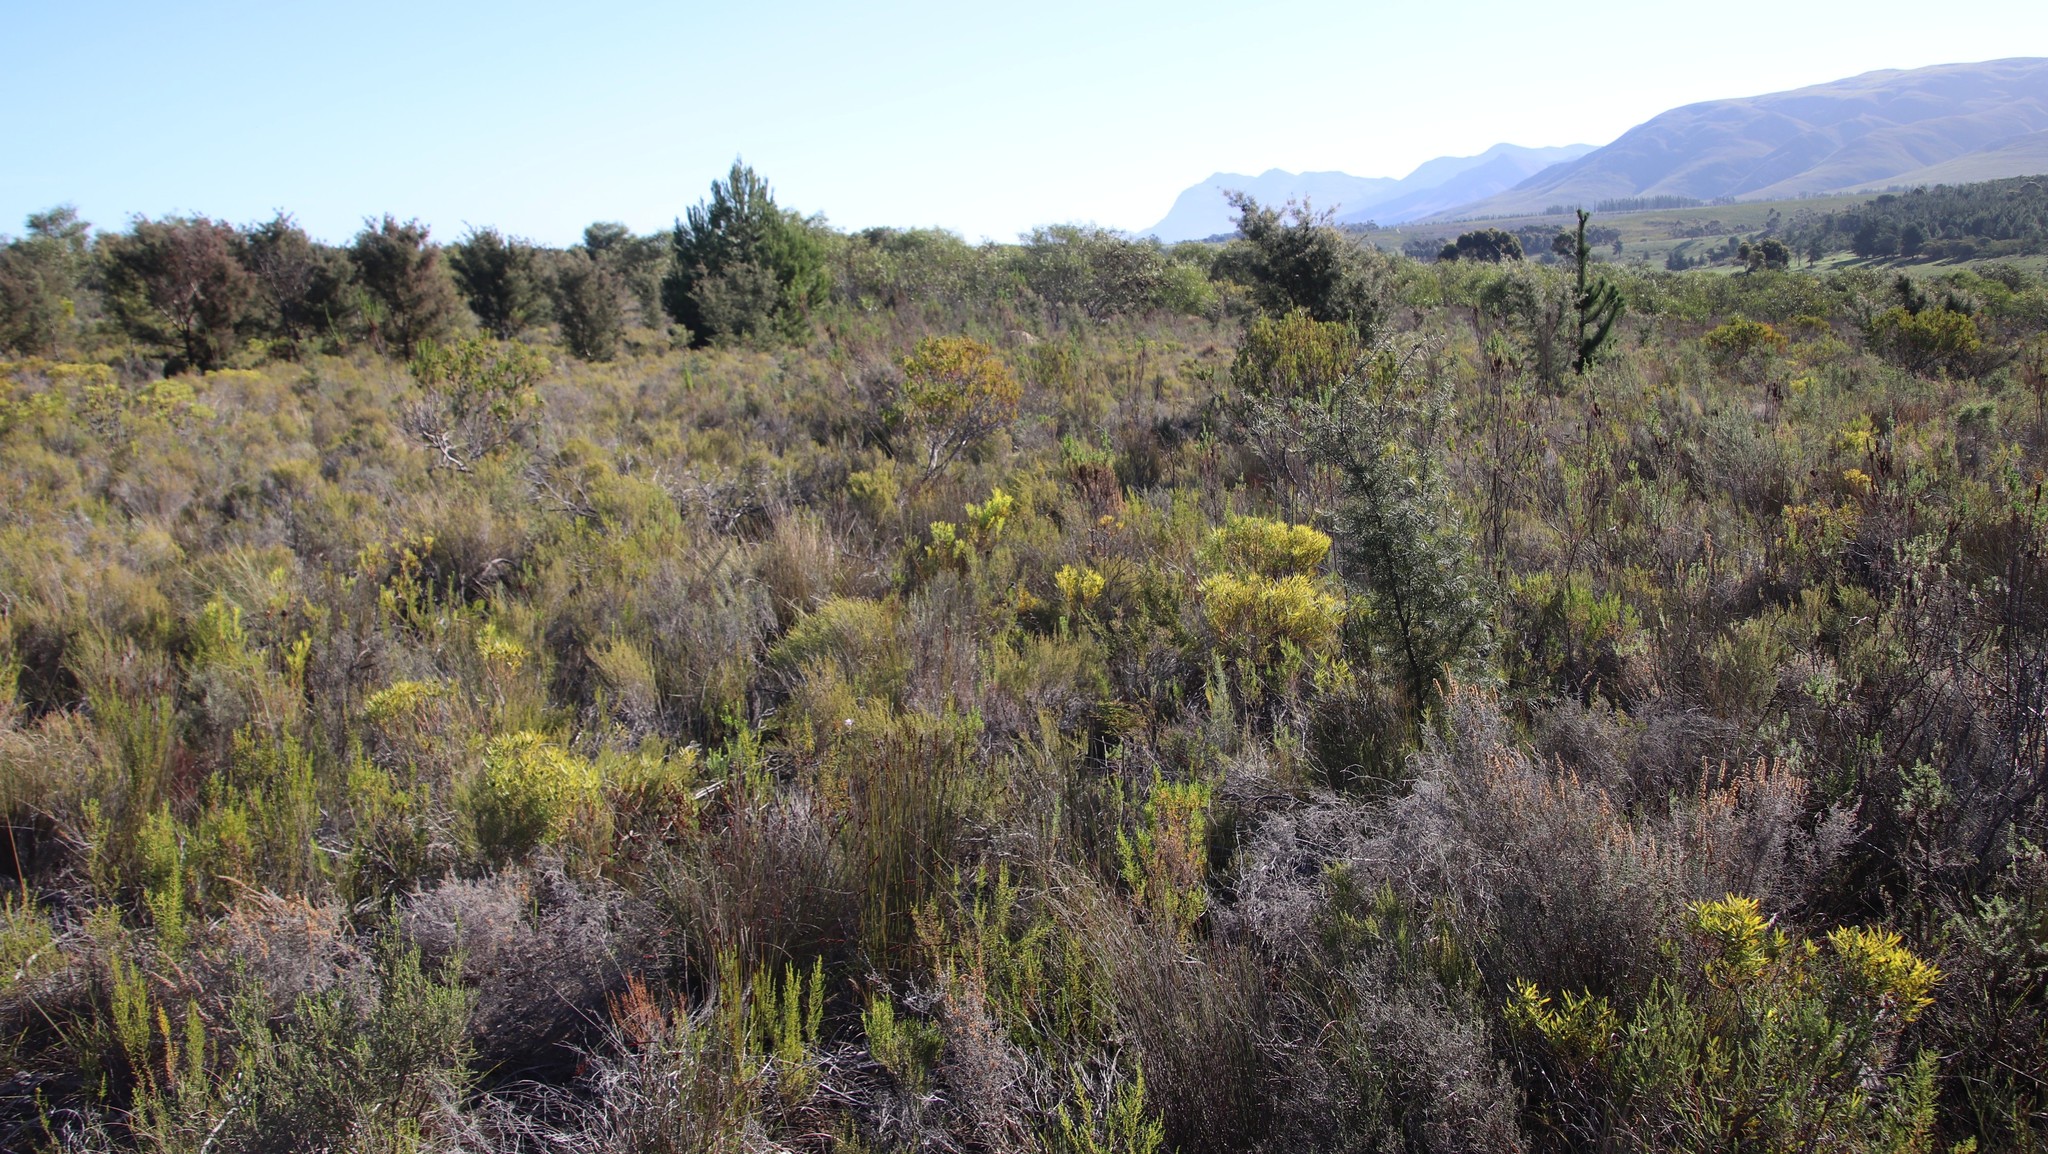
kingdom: Plantae
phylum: Tracheophyta
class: Magnoliopsida
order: Proteales
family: Proteaceae
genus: Leucadendron
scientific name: Leucadendron salignum
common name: Common sunshine conebush
